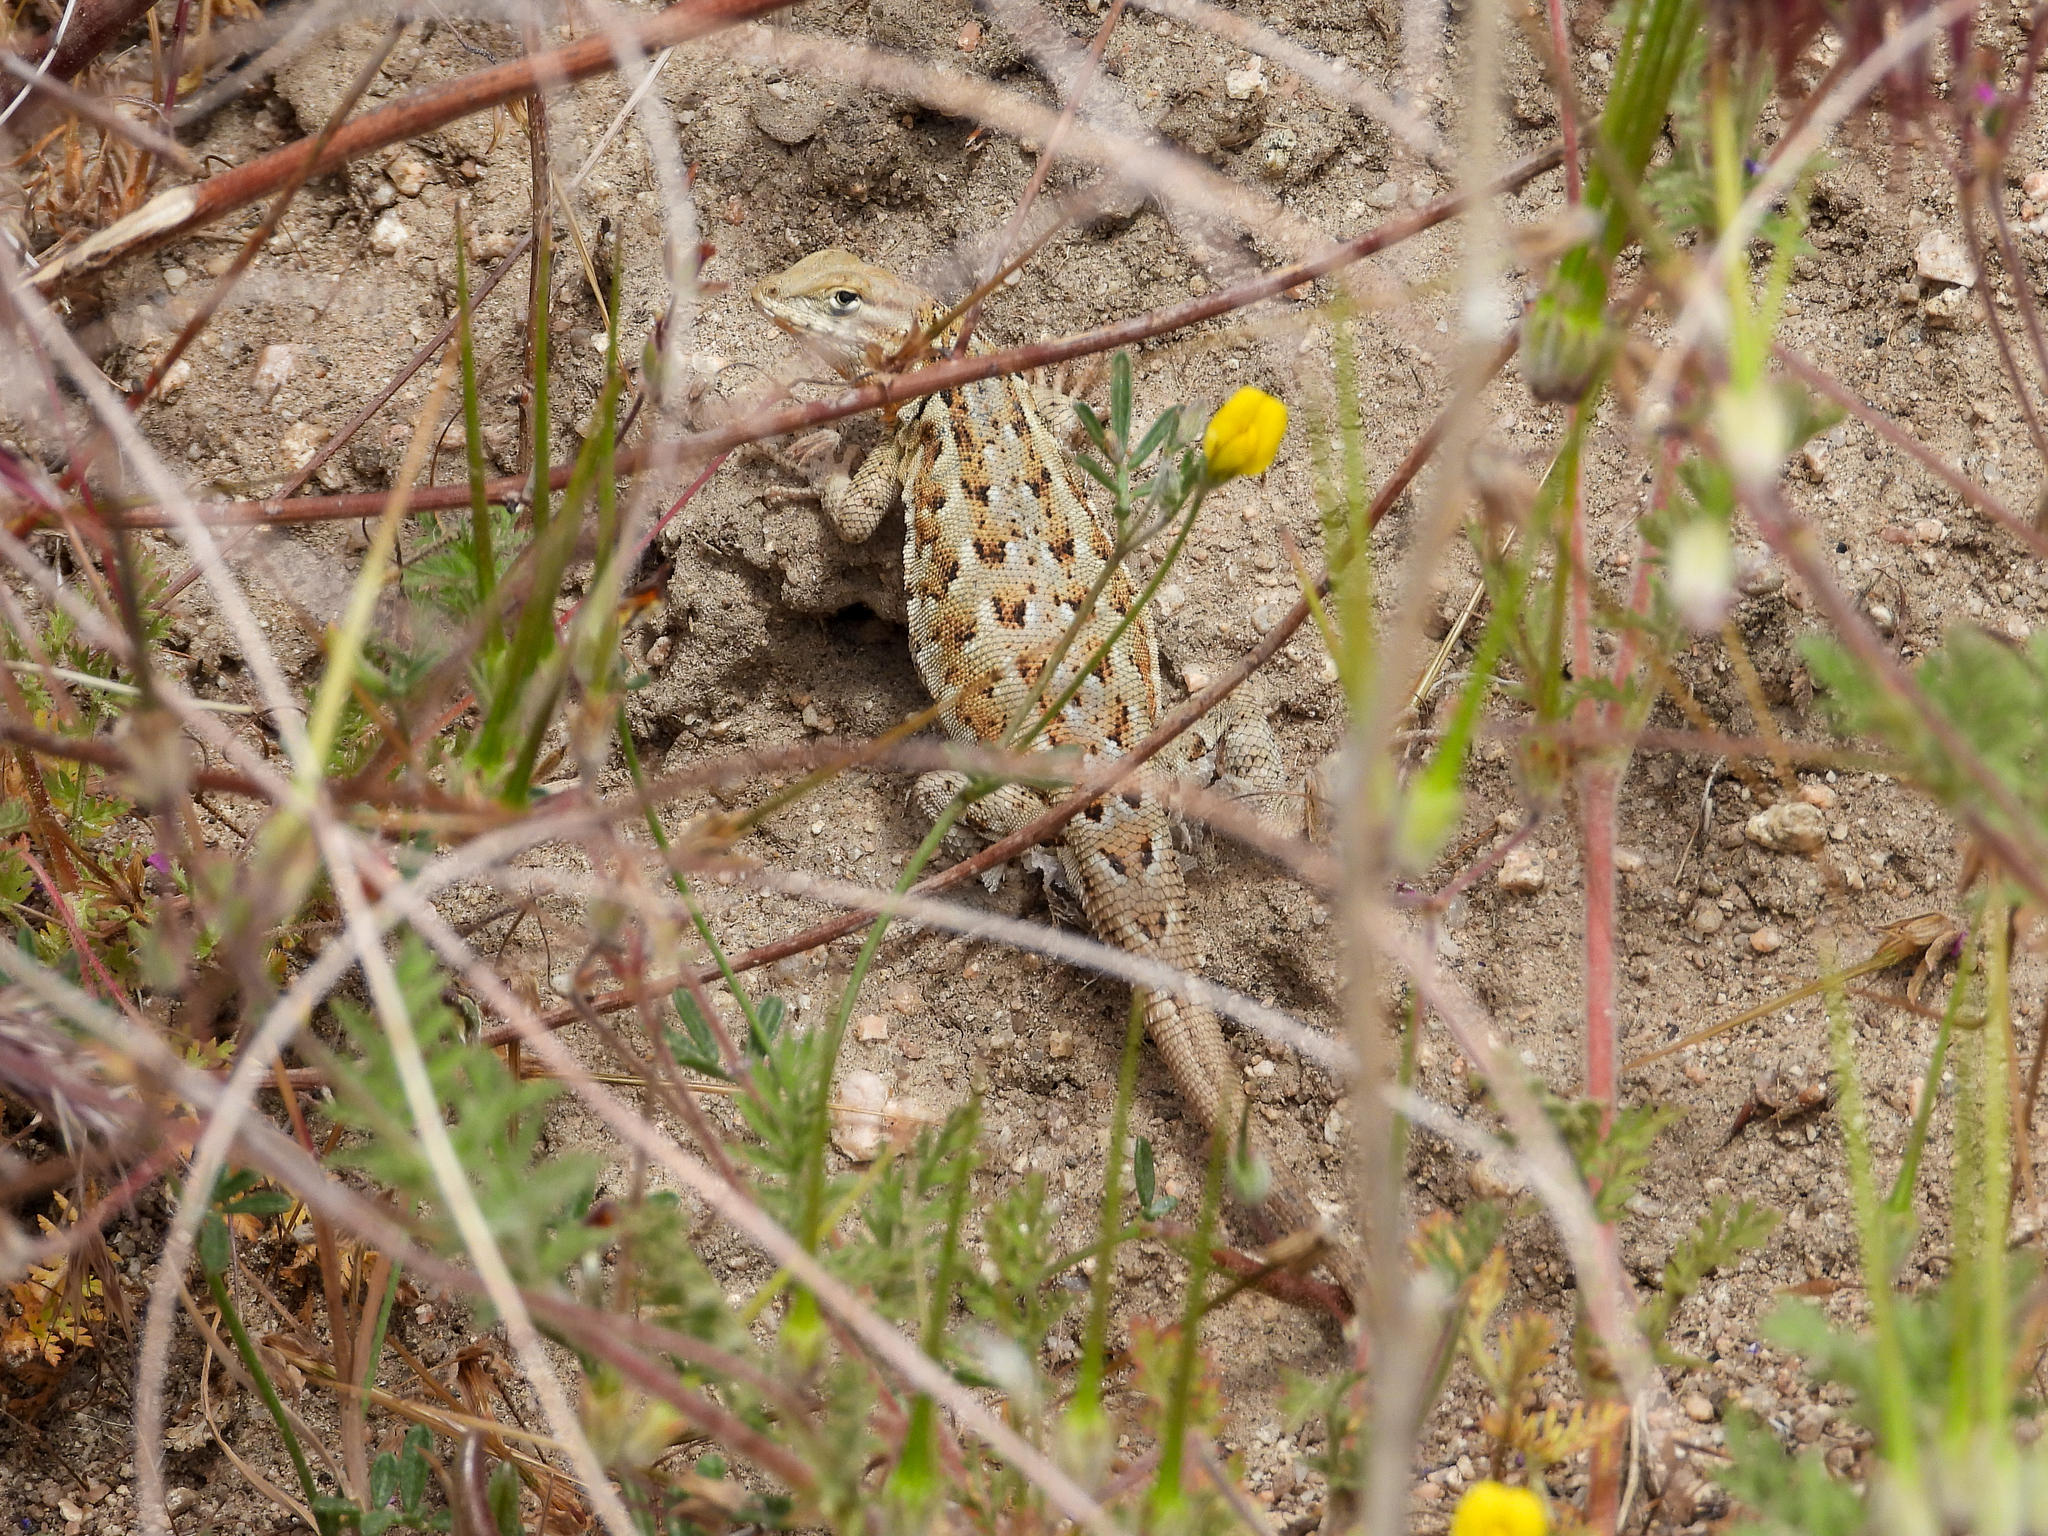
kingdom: Animalia
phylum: Chordata
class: Squamata
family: Phrynosomatidae
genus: Uta
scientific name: Uta stansburiana
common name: Side-blotched lizard
